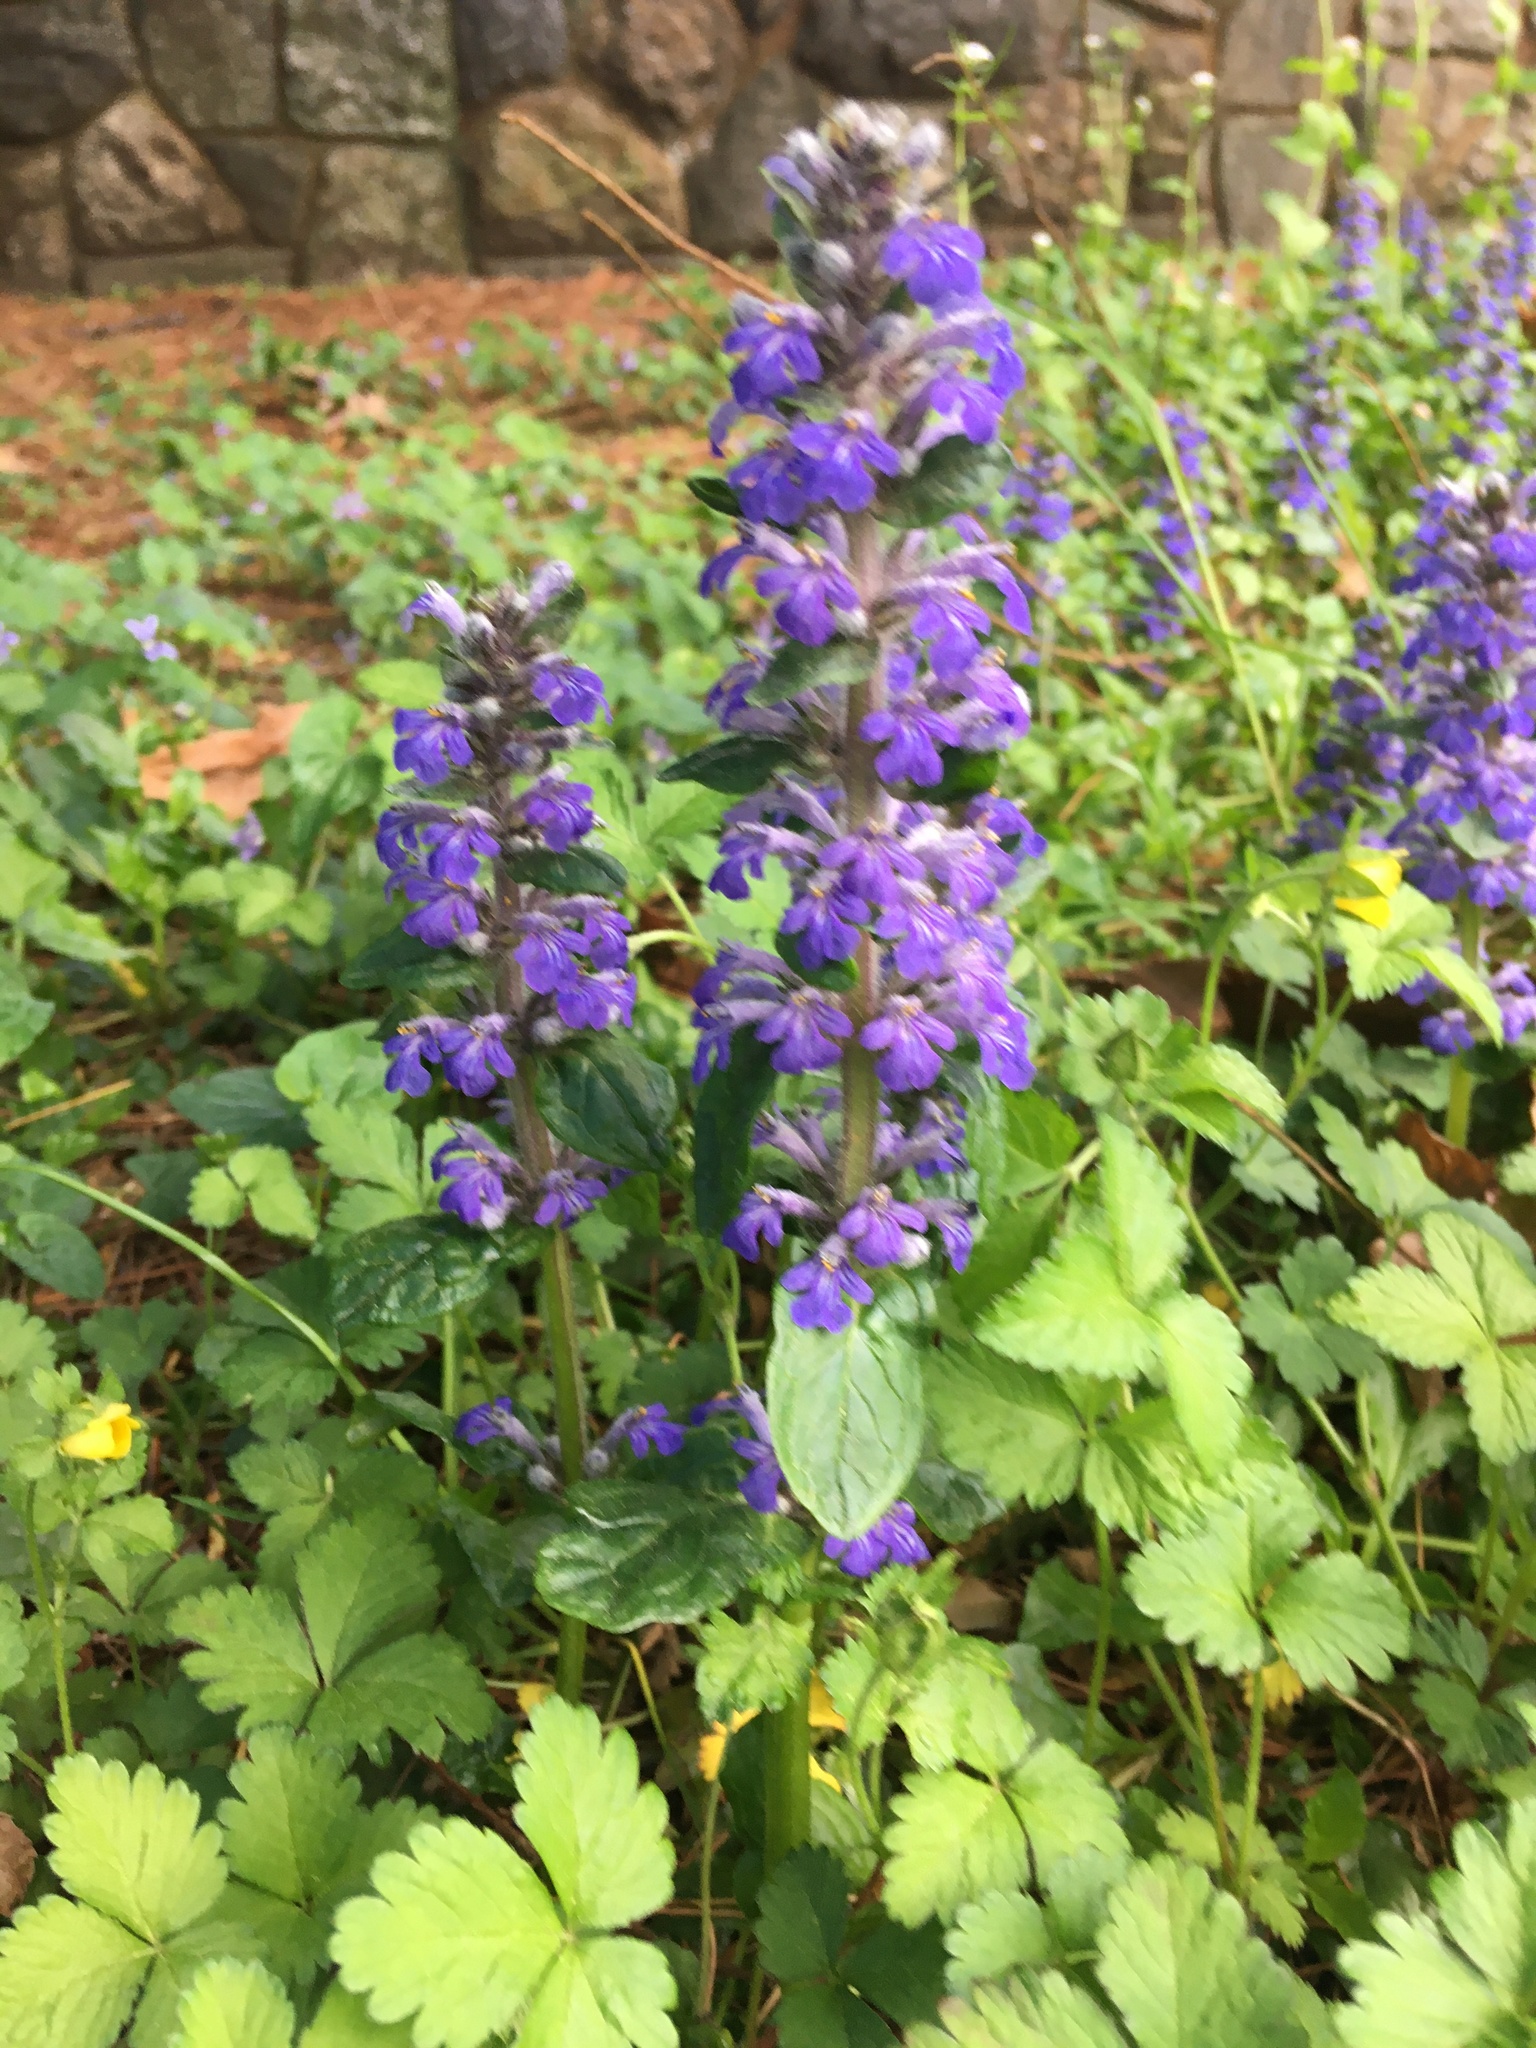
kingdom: Plantae
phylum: Tracheophyta
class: Magnoliopsida
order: Lamiales
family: Lamiaceae
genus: Ajuga
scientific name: Ajuga reptans
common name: Bugle
